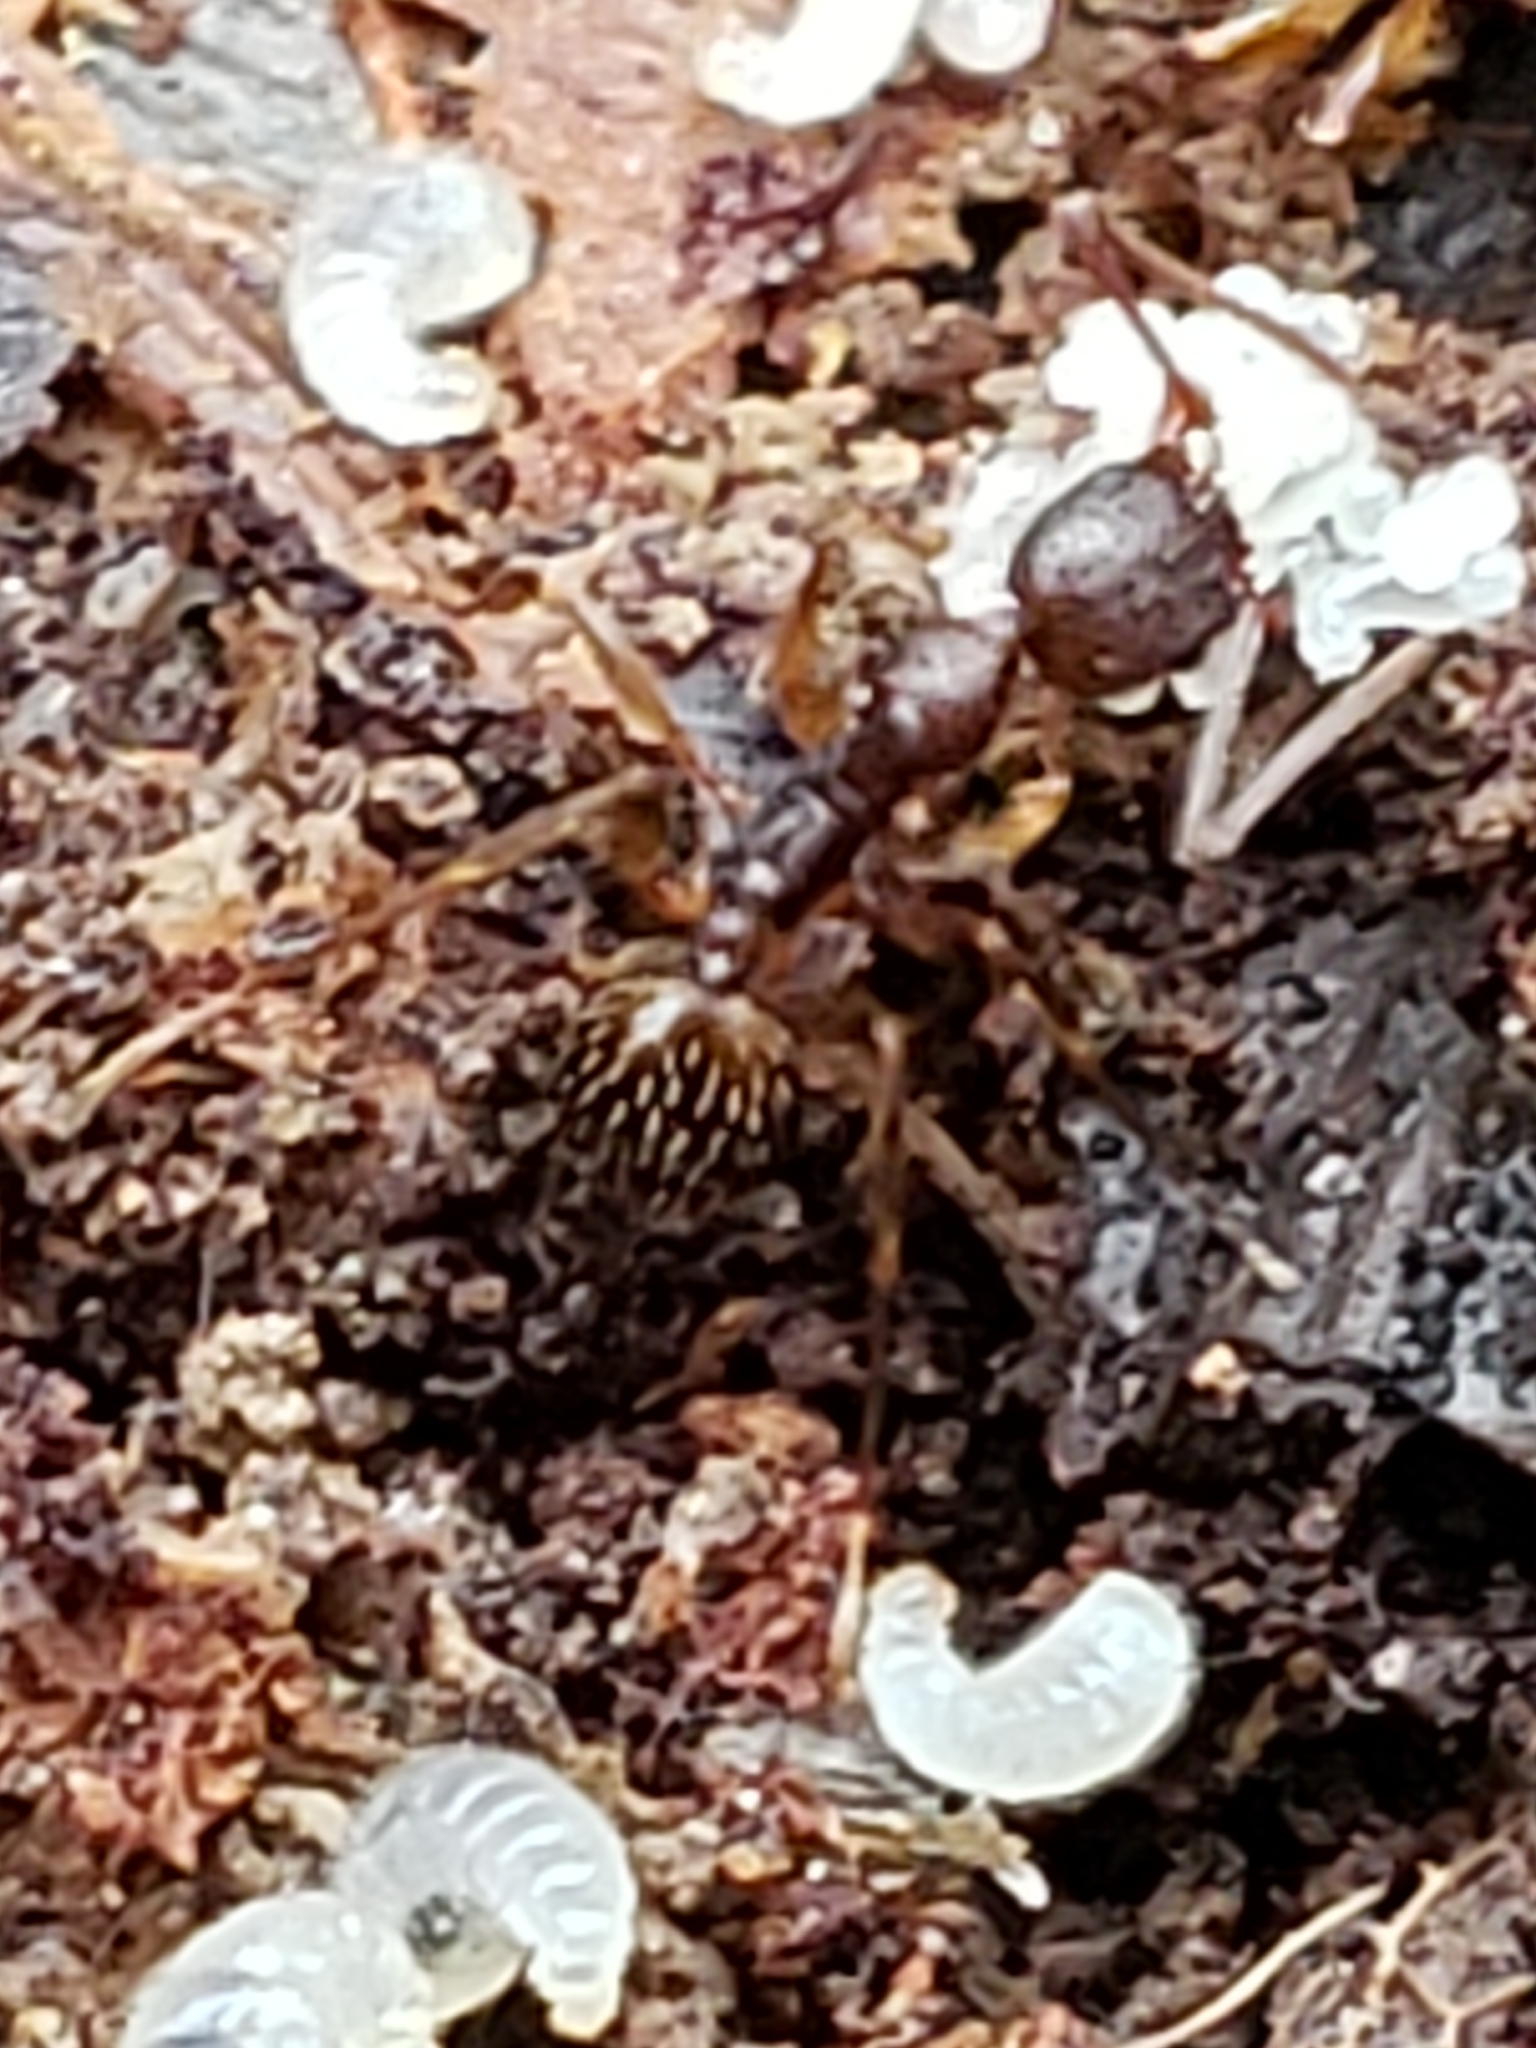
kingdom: Animalia
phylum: Arthropoda
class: Insecta
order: Hymenoptera
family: Formicidae
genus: Aphaenogaster
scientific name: Aphaenogaster rudis
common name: Winnow ant
